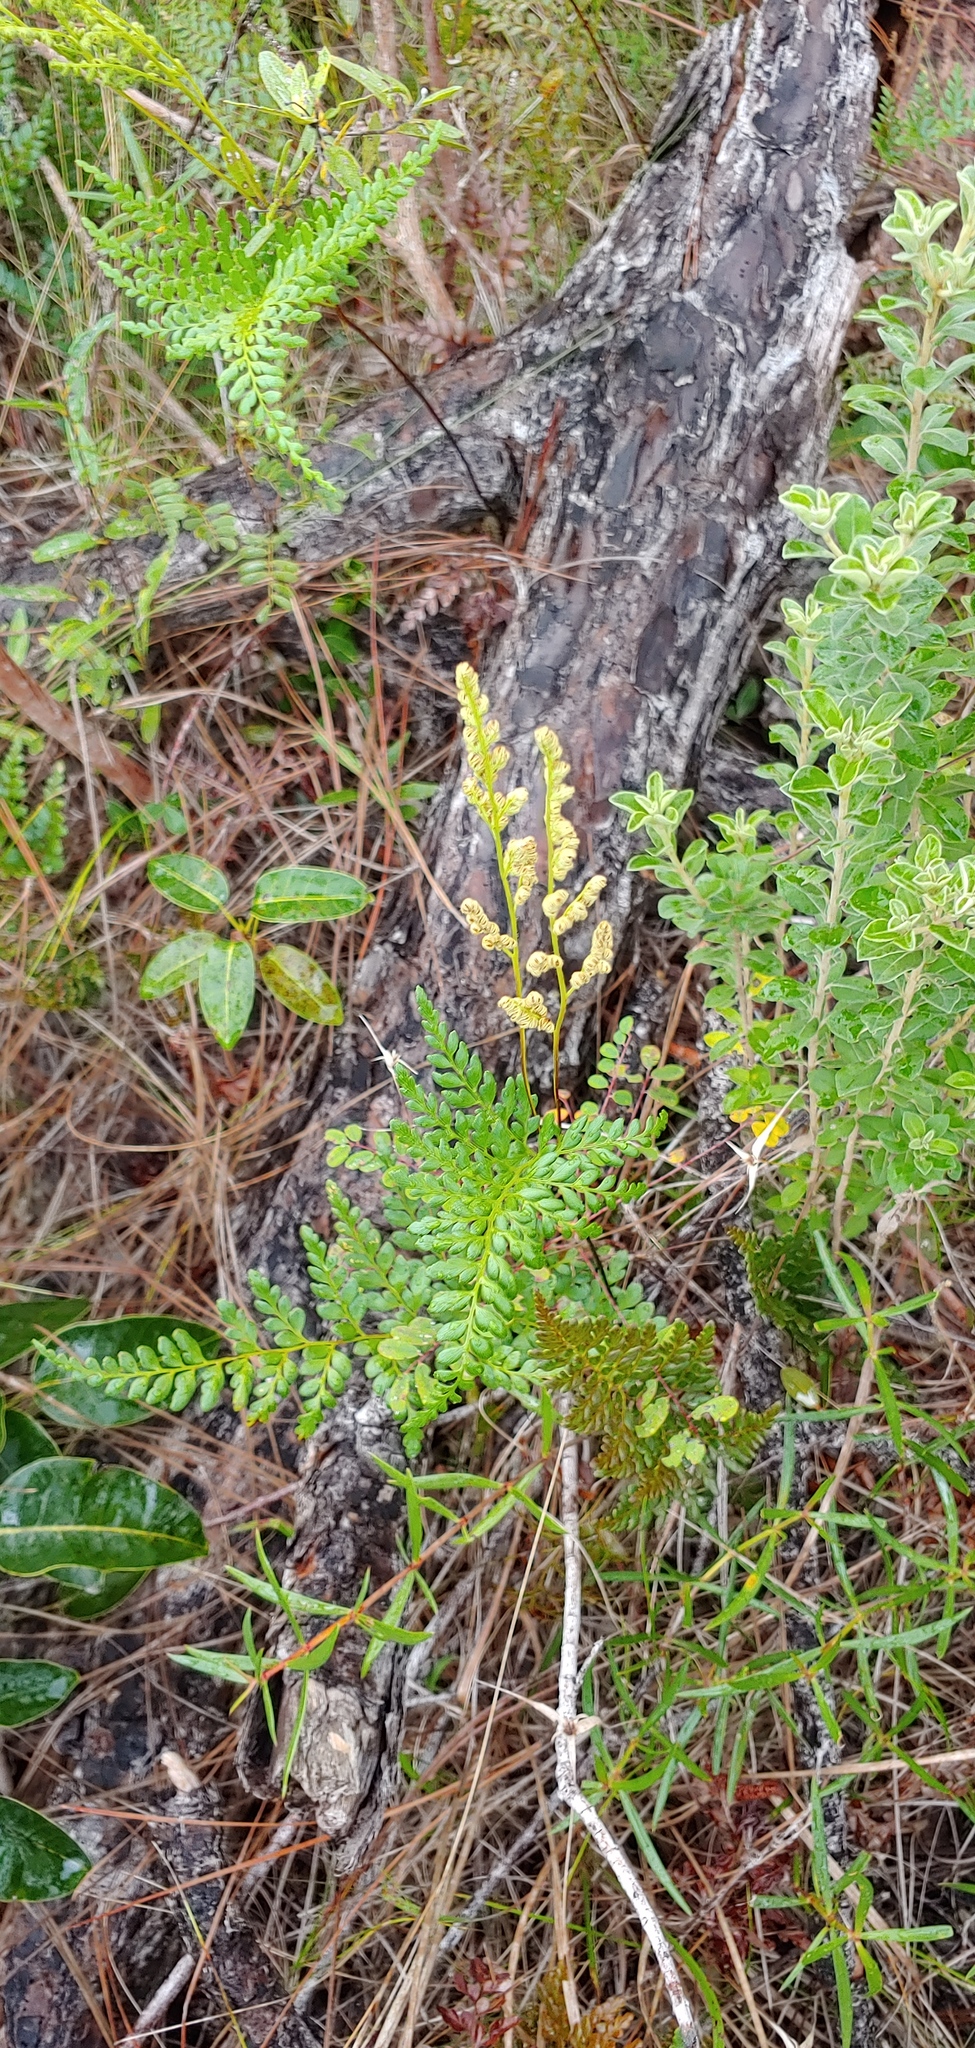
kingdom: Plantae
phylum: Tracheophyta
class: Polypodiopsida
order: Schizaeales
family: Anemiaceae
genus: Anemia
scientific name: Anemia adiantifolia
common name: Pine fern
